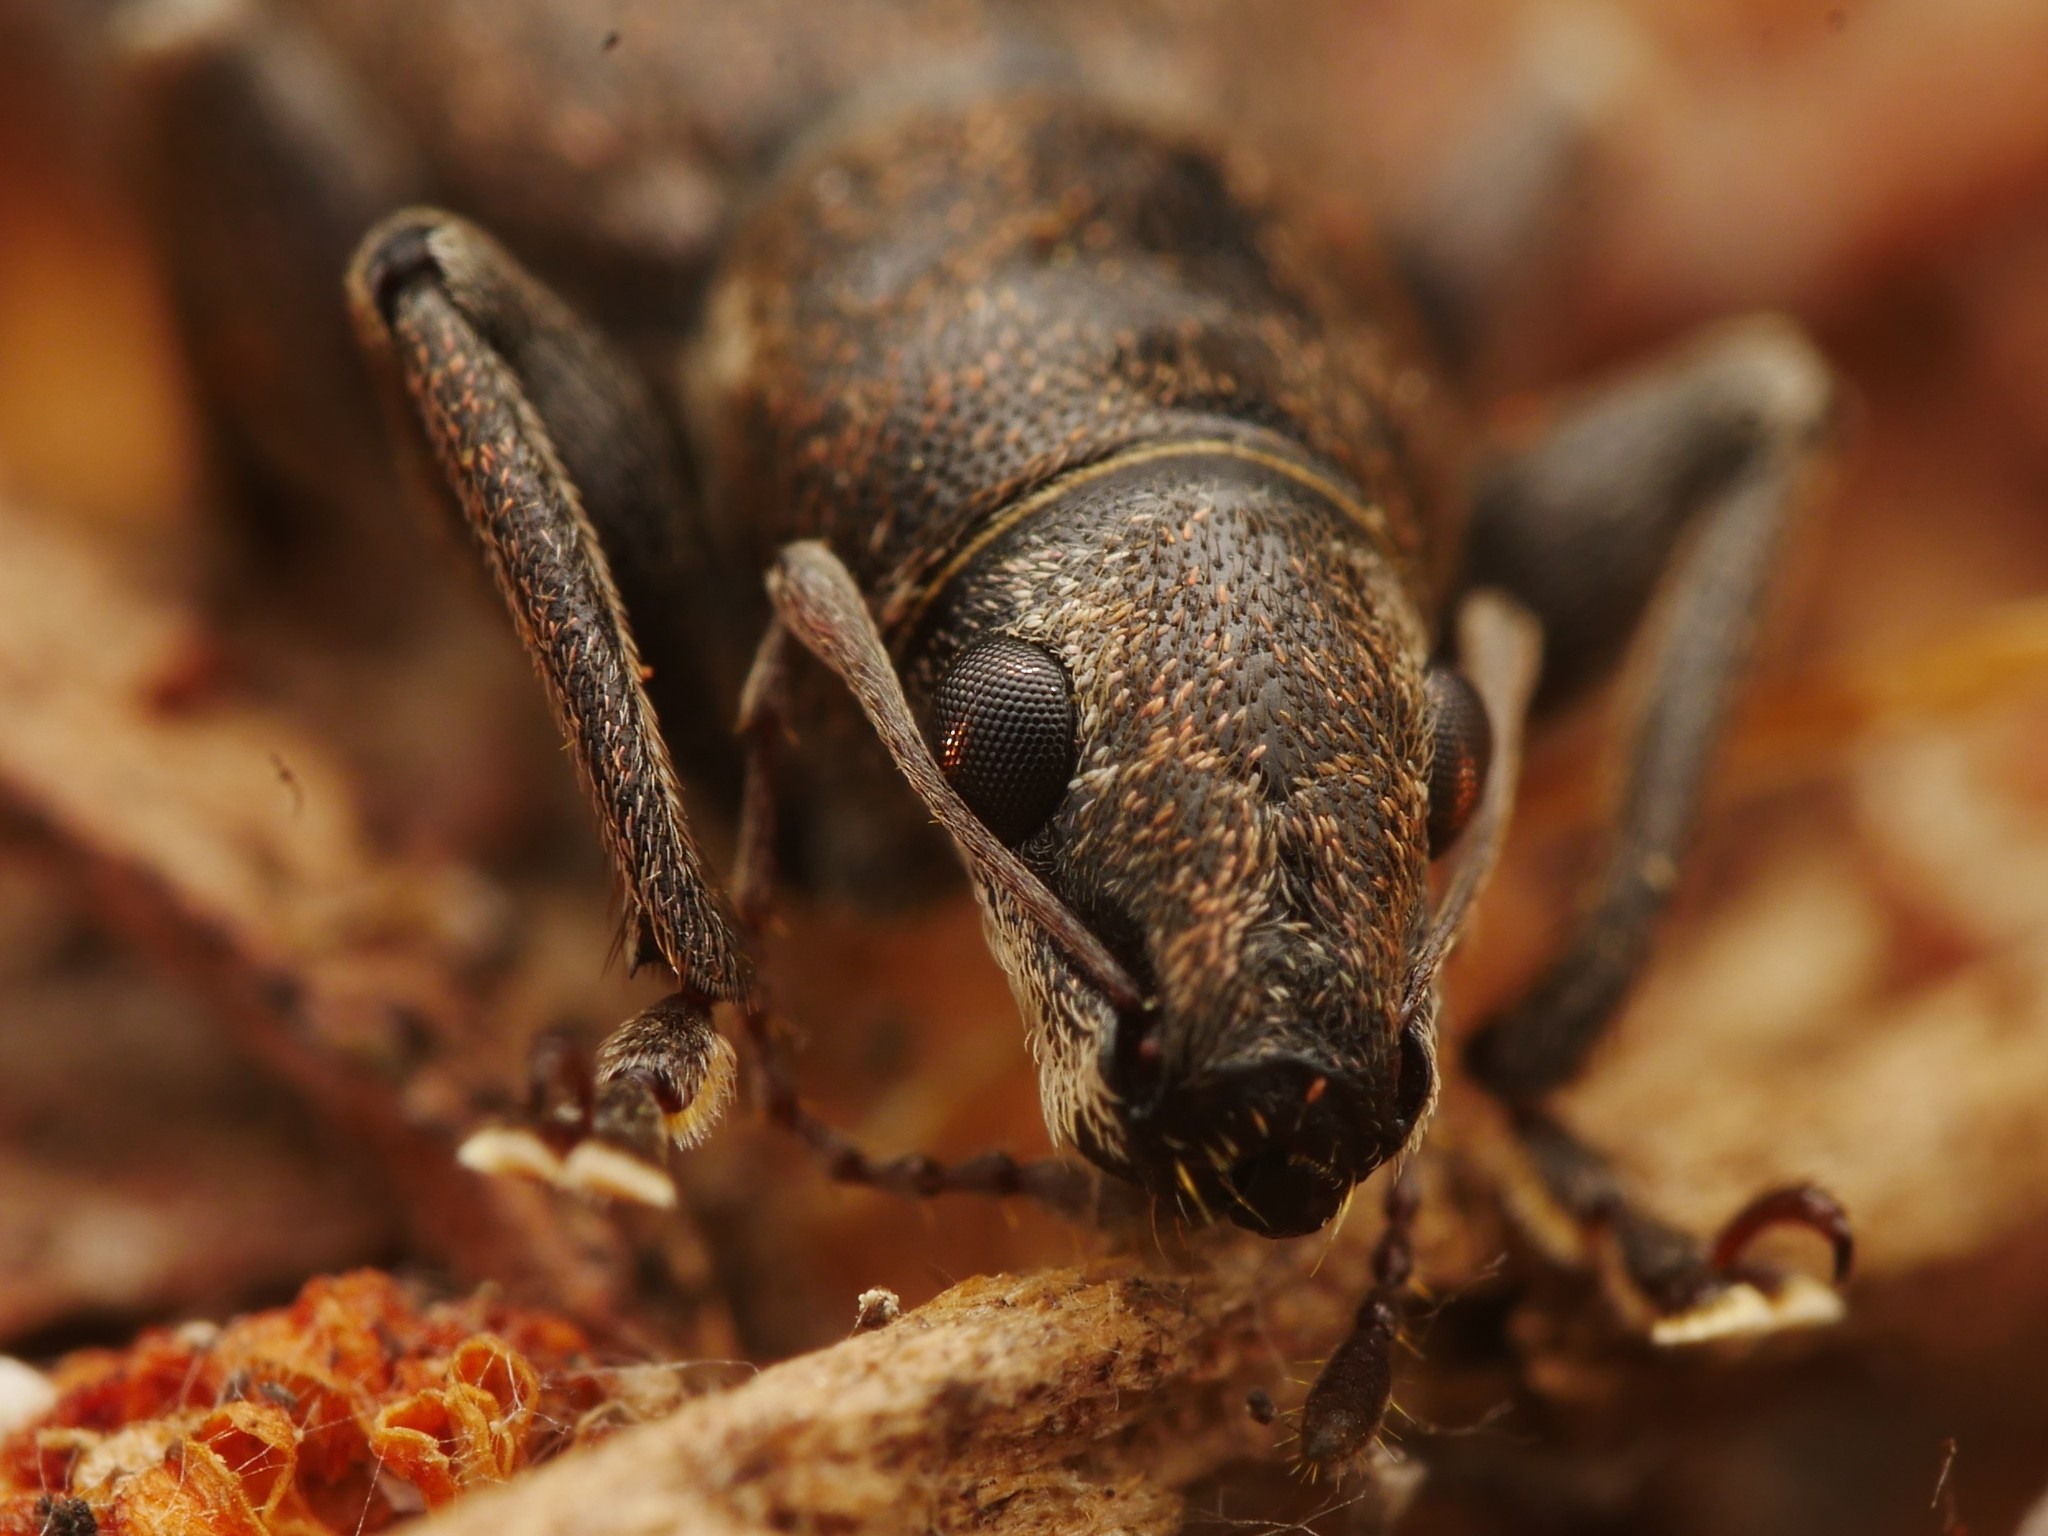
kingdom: Animalia
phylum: Arthropoda
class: Insecta
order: Coleoptera
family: Curculionidae
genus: Brachyderes
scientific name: Brachyderes incanus
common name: Weevil
